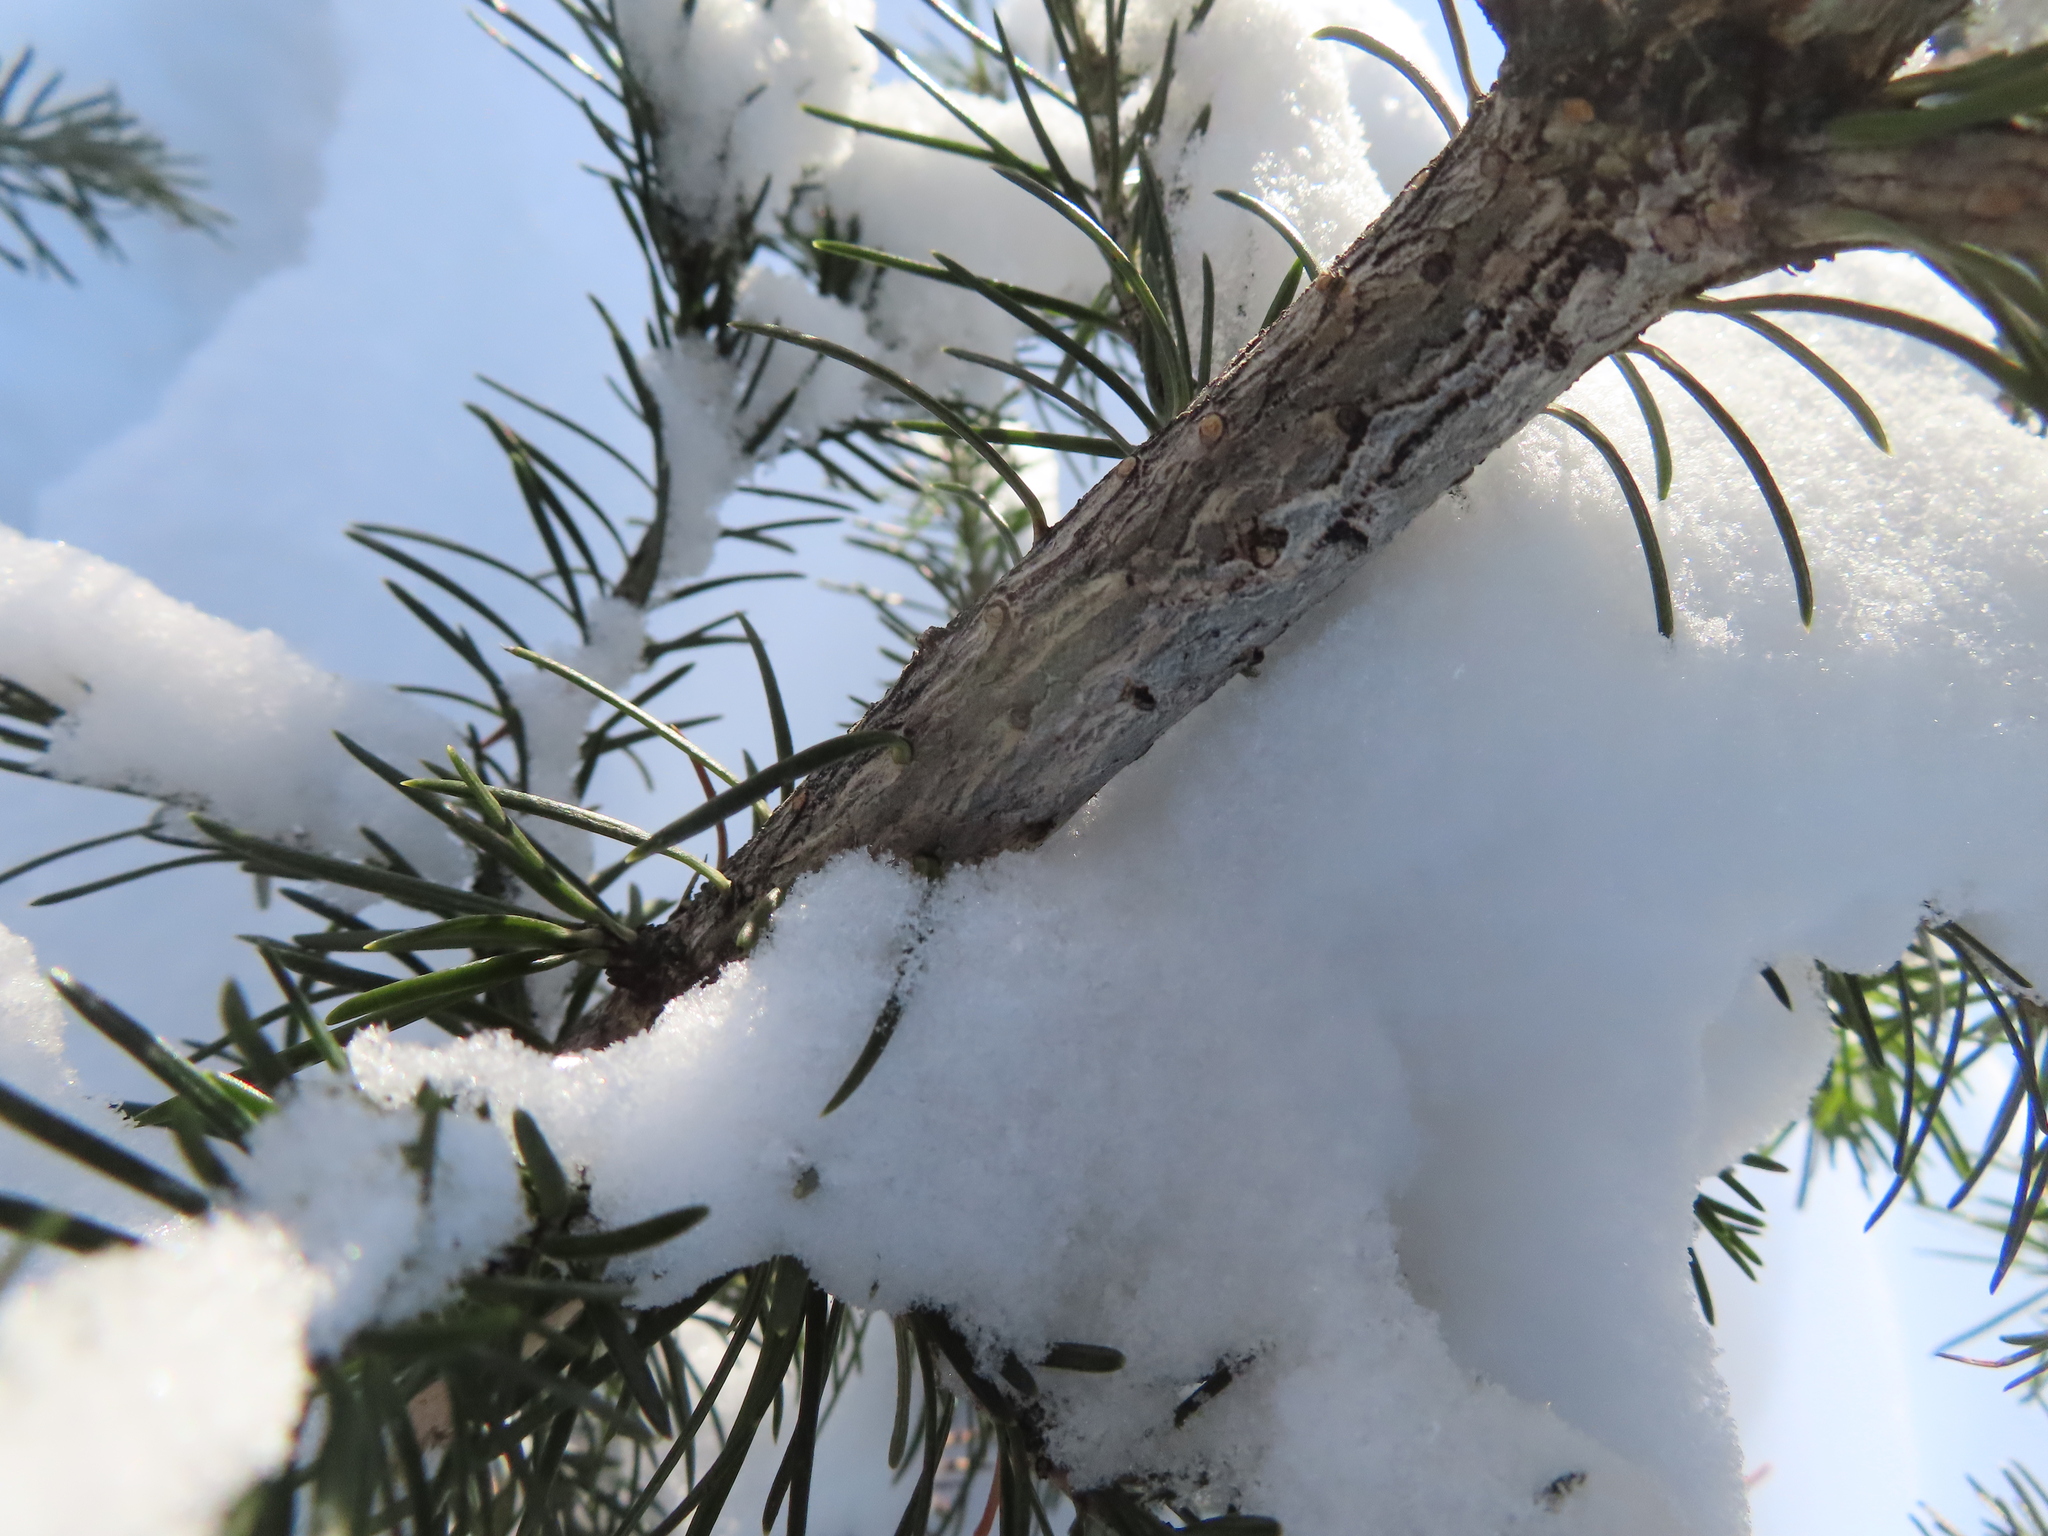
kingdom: Plantae
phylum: Tracheophyta
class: Pinopsida
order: Pinales
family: Pinaceae
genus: Abies
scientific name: Abies lasiocarpa
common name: Subalpine fir
